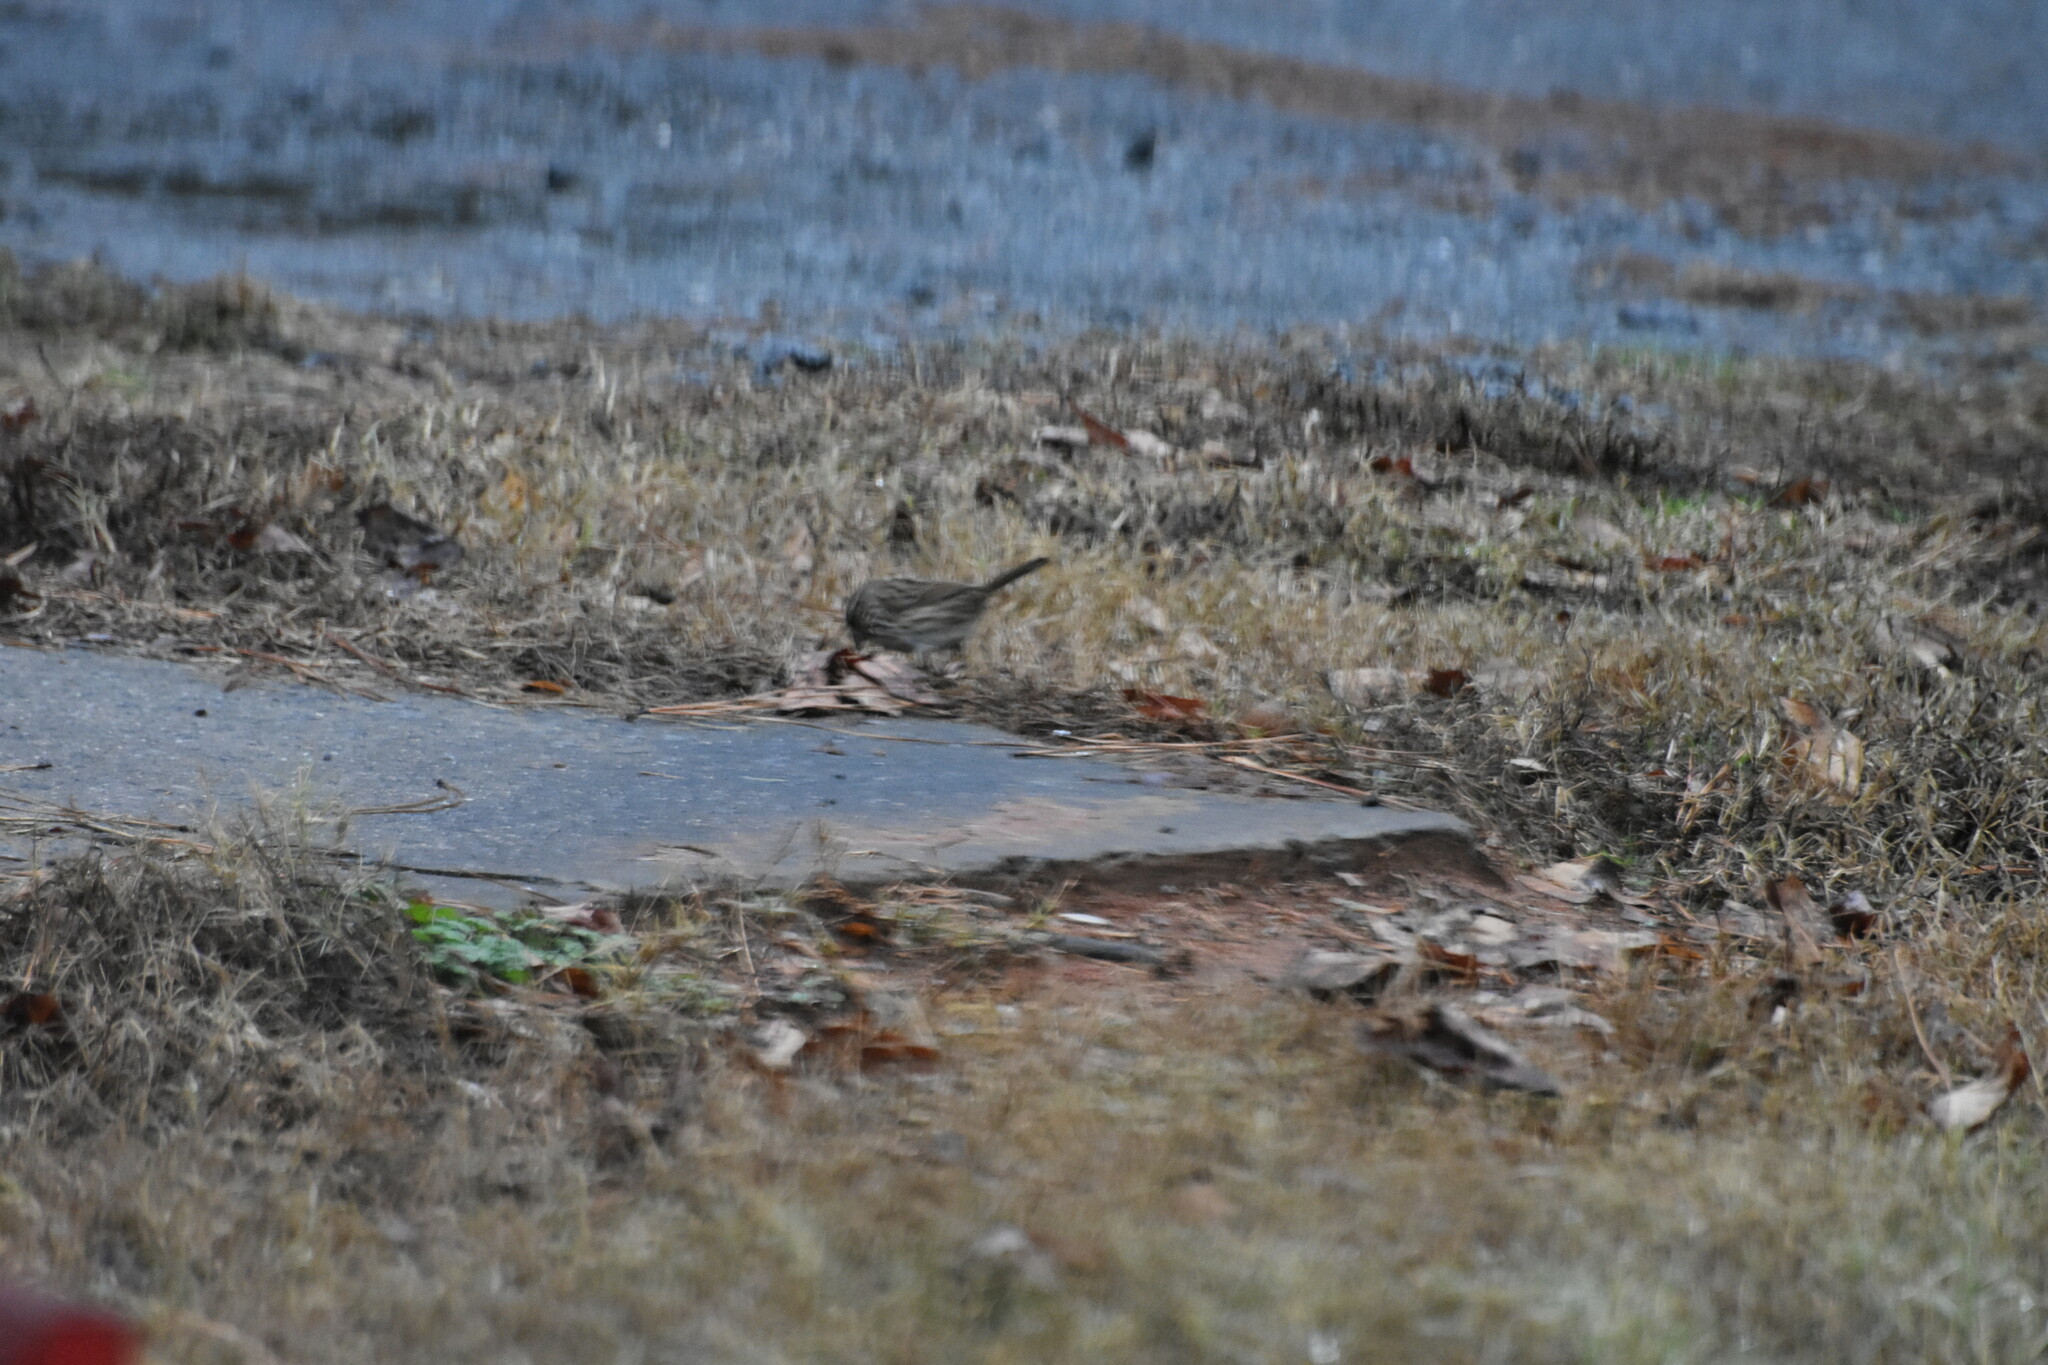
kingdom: Animalia
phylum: Chordata
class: Aves
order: Passeriformes
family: Passerellidae
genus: Melospiza
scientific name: Melospiza melodia
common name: Song sparrow
